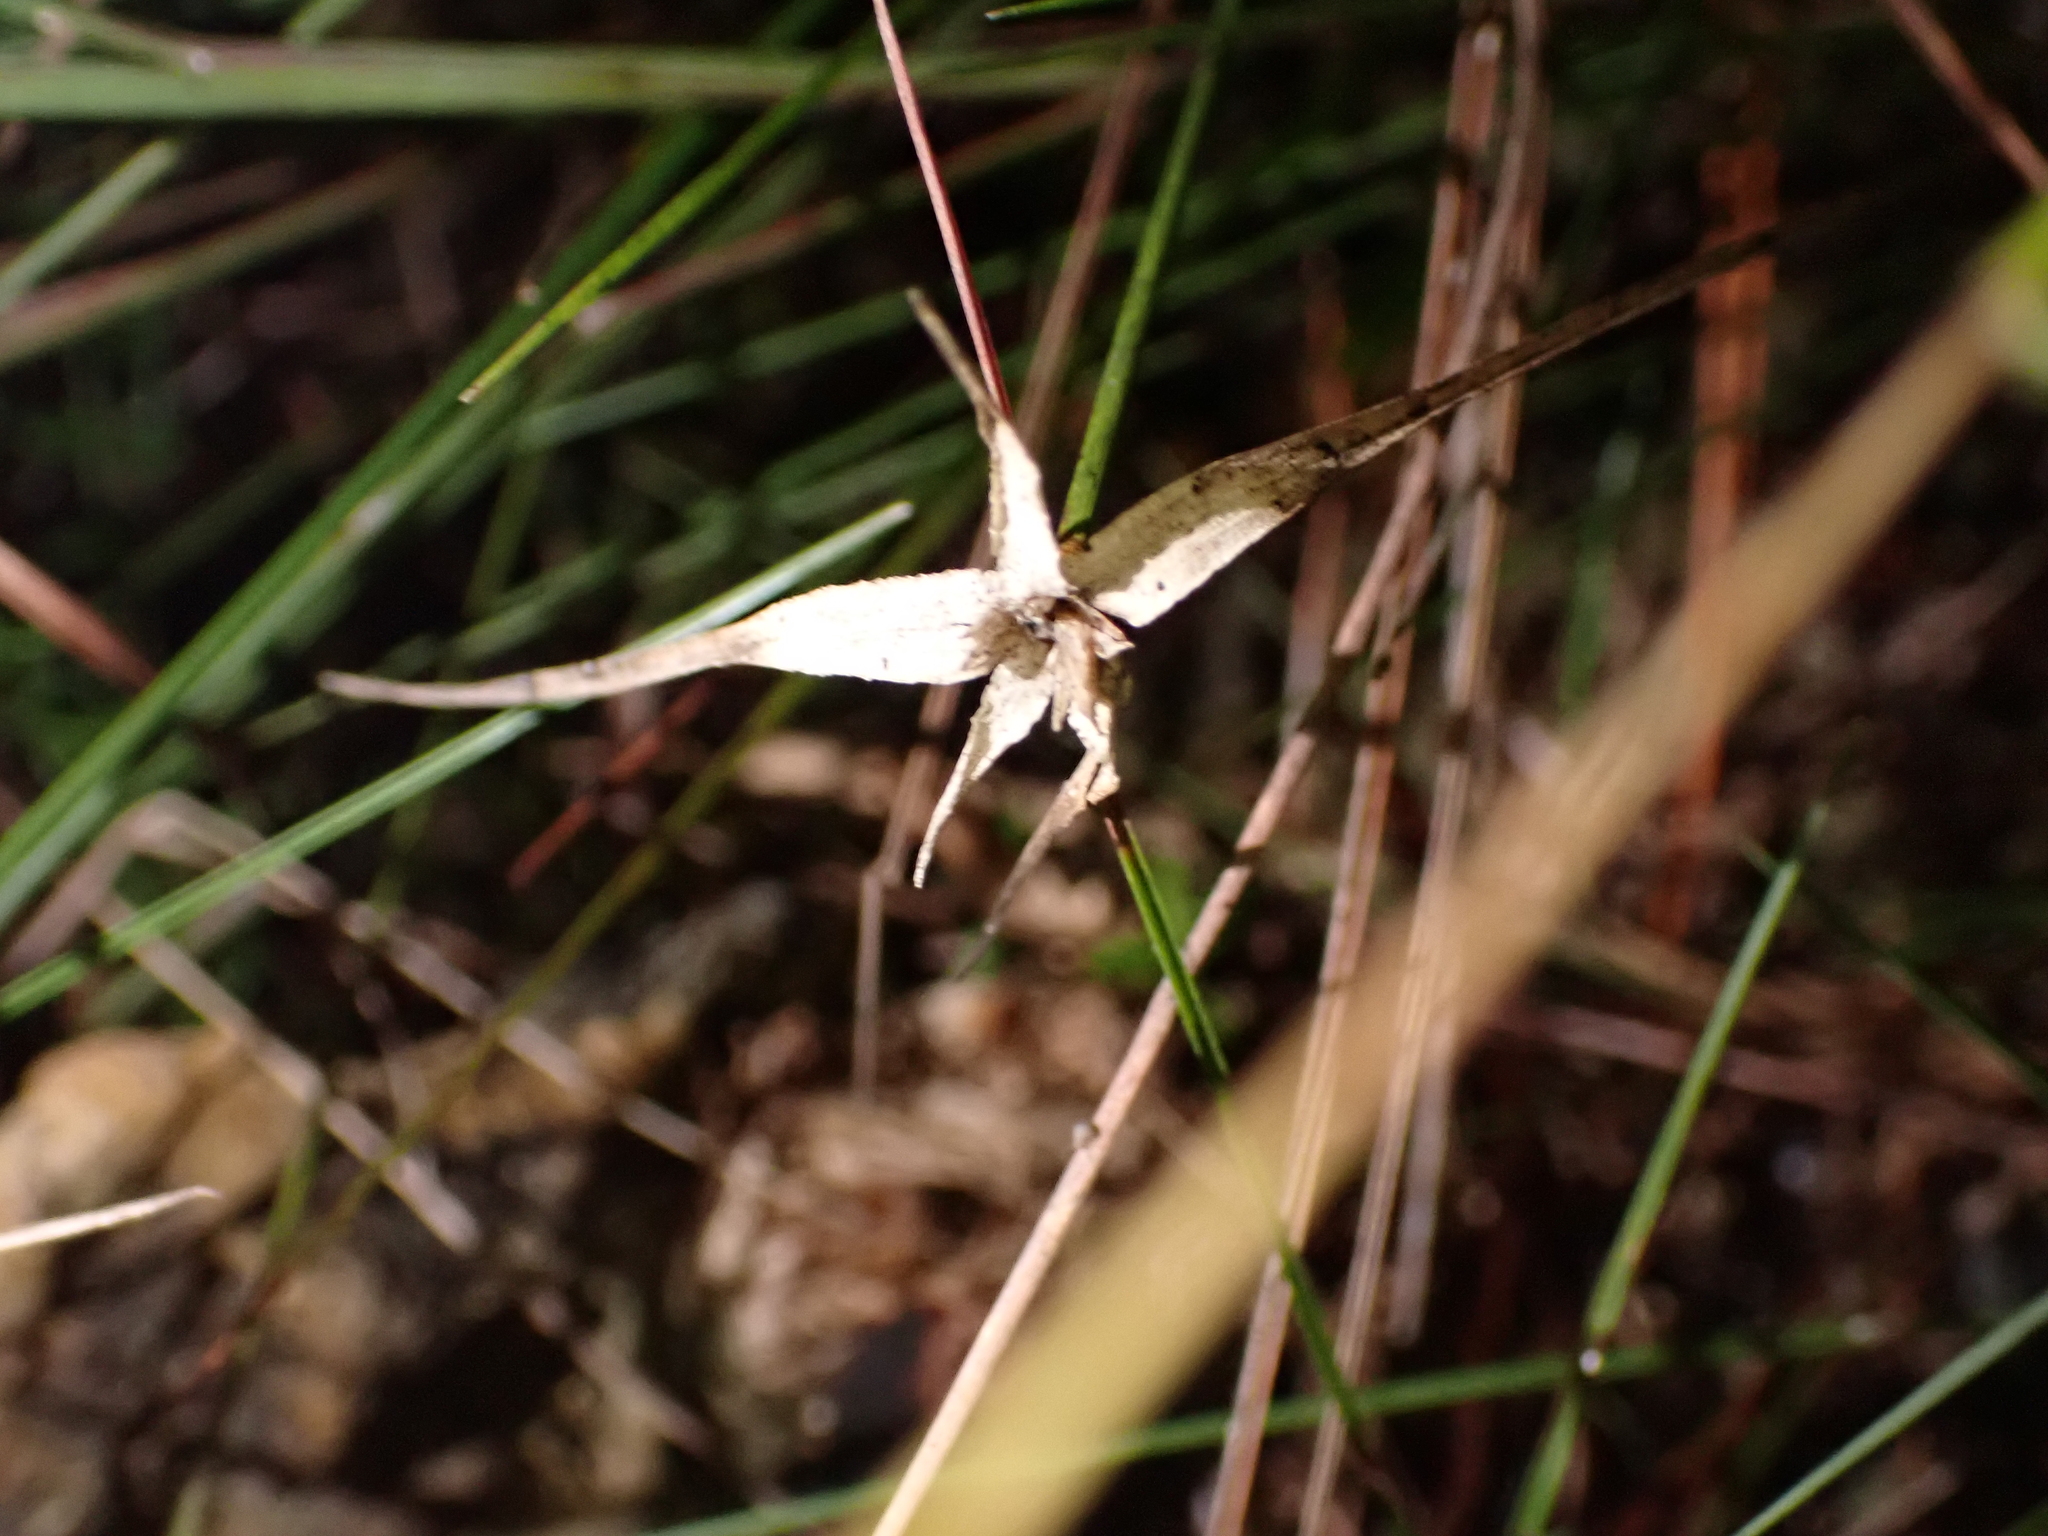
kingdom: Plantae
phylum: Tracheophyta
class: Liliopsida
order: Poales
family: Cyperaceae
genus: Rhynchospora
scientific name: Rhynchospora colorata
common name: Star sedge
